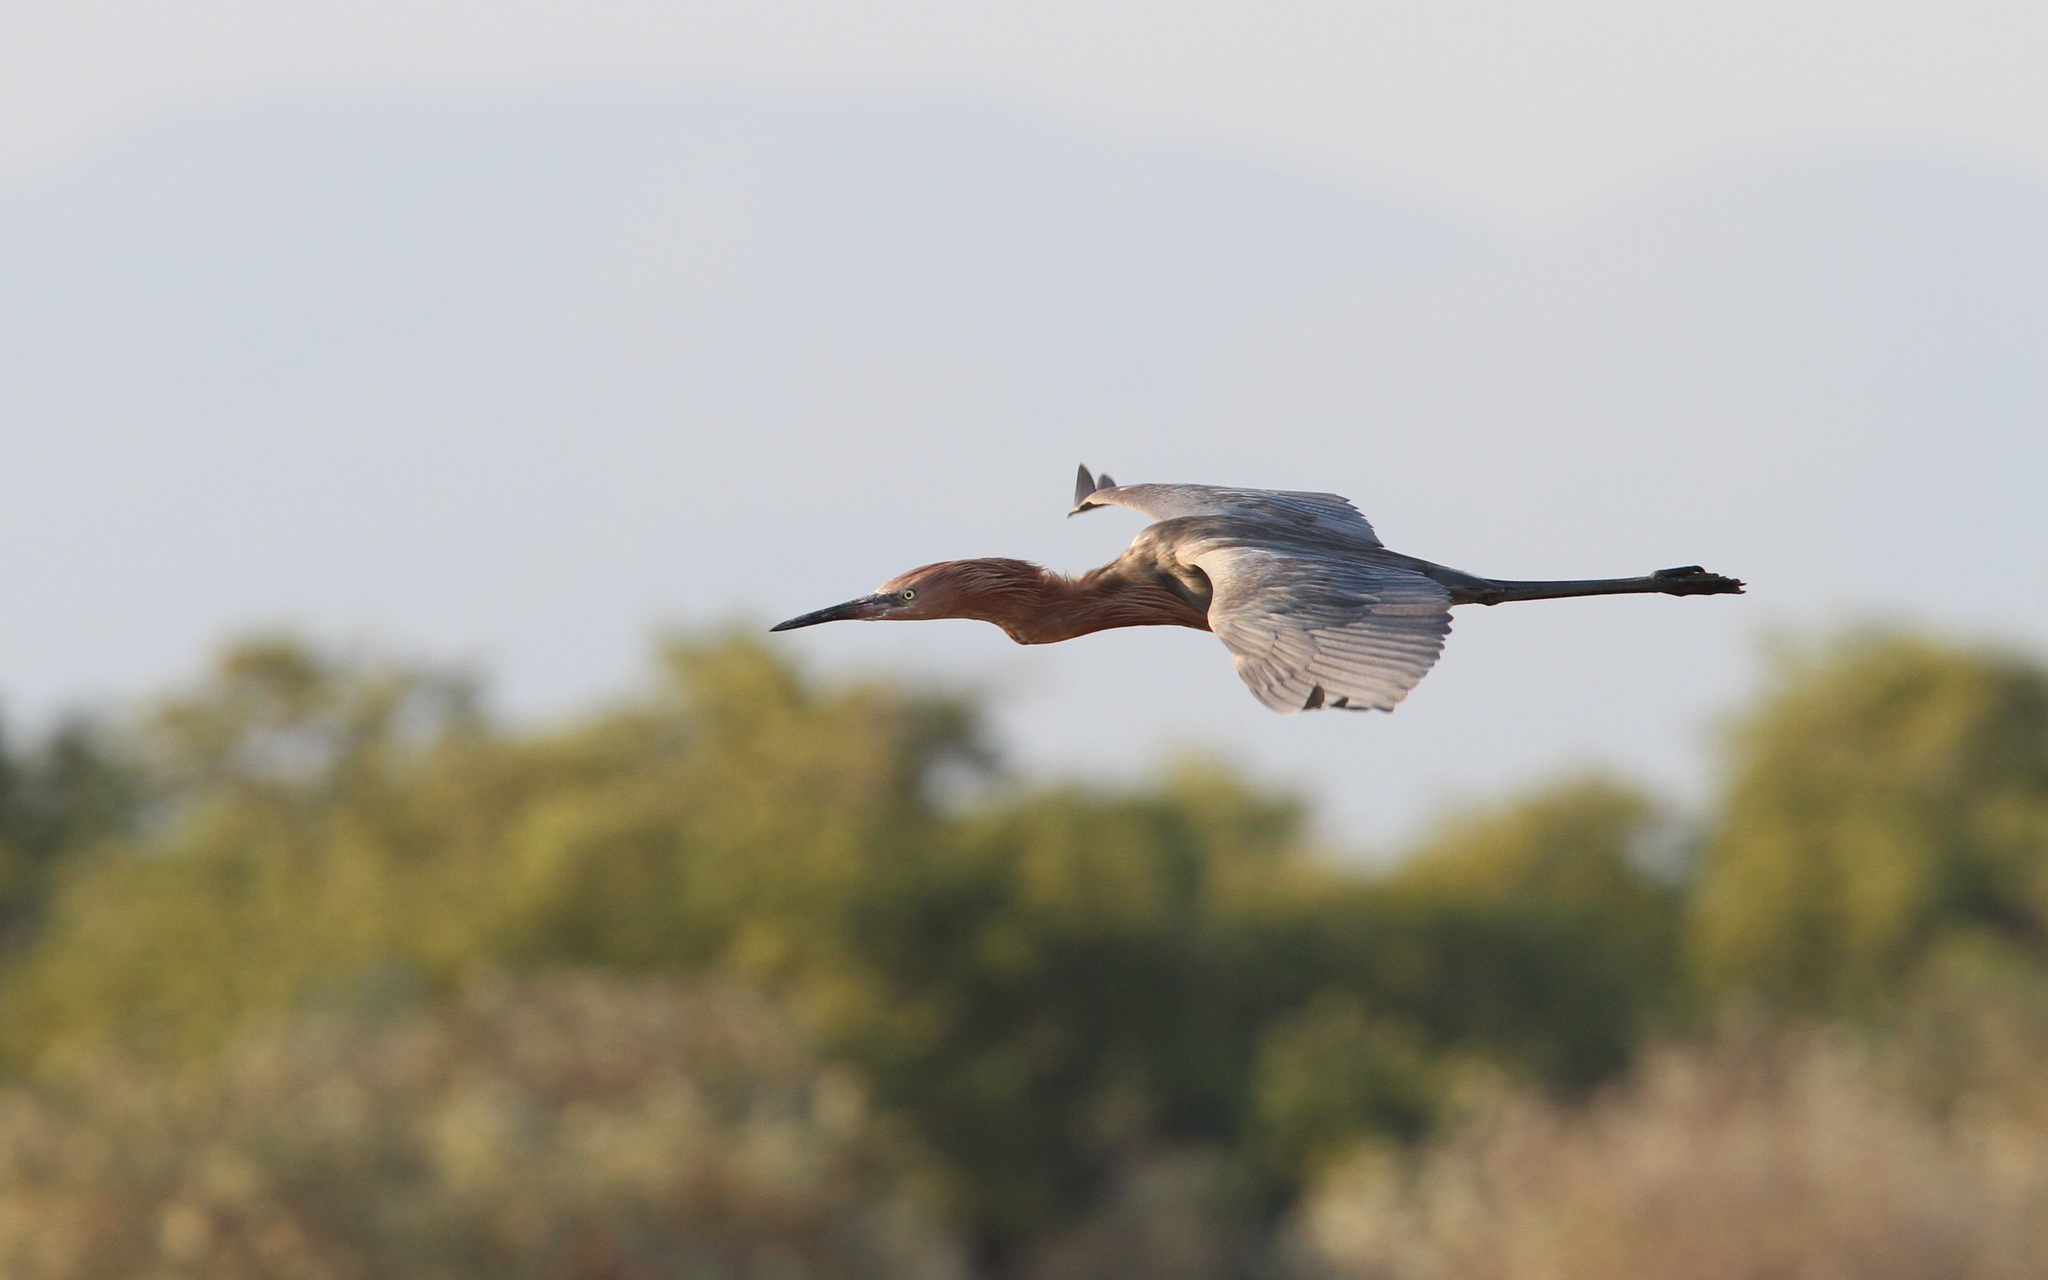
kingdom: Animalia
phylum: Chordata
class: Aves
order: Pelecaniformes
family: Ardeidae
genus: Egretta
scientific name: Egretta rufescens
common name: Reddish egret
